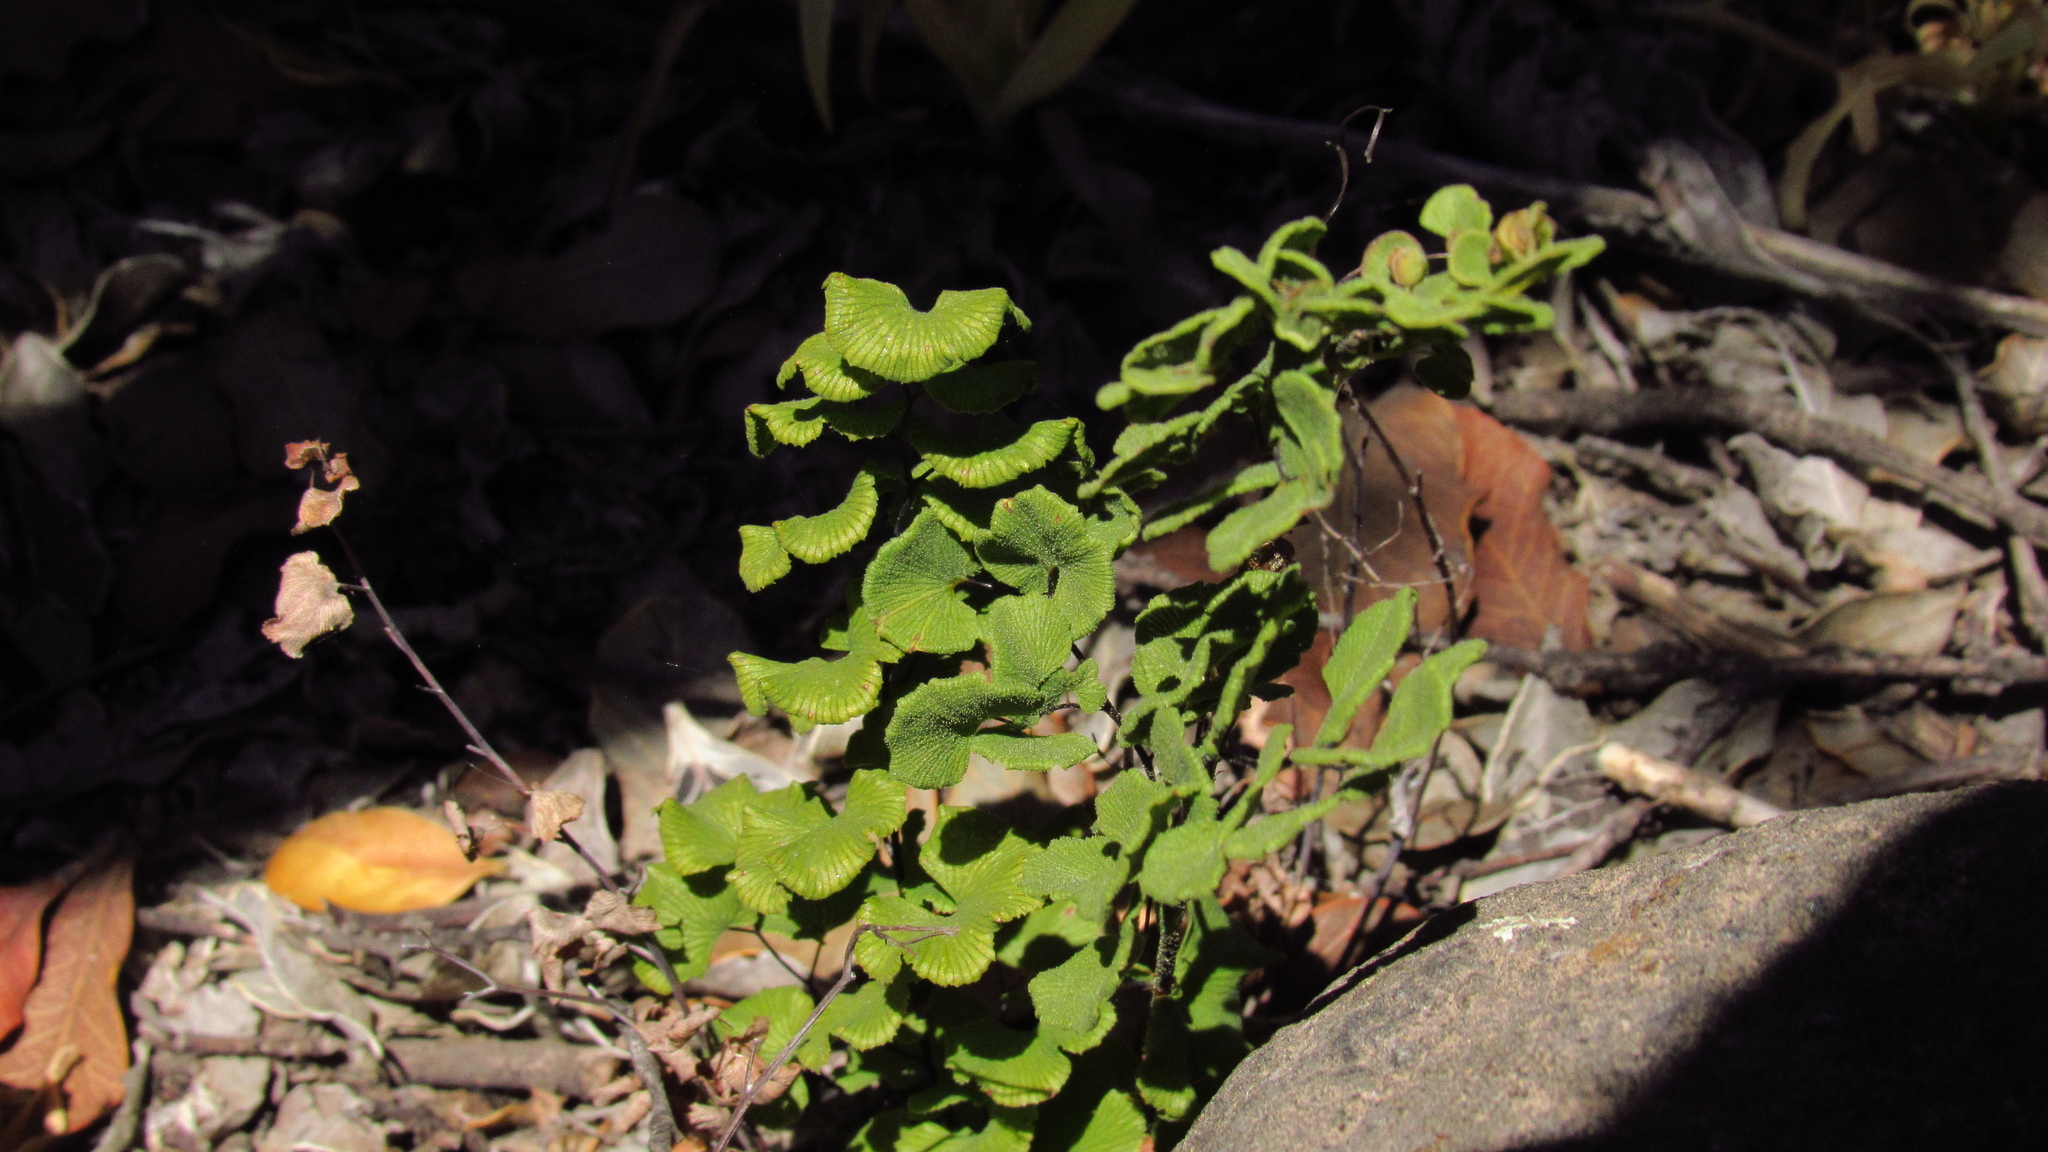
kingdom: Plantae
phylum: Tracheophyta
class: Polypodiopsida
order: Polypodiales
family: Pteridaceae
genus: Adiantum
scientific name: Adiantum chilense
